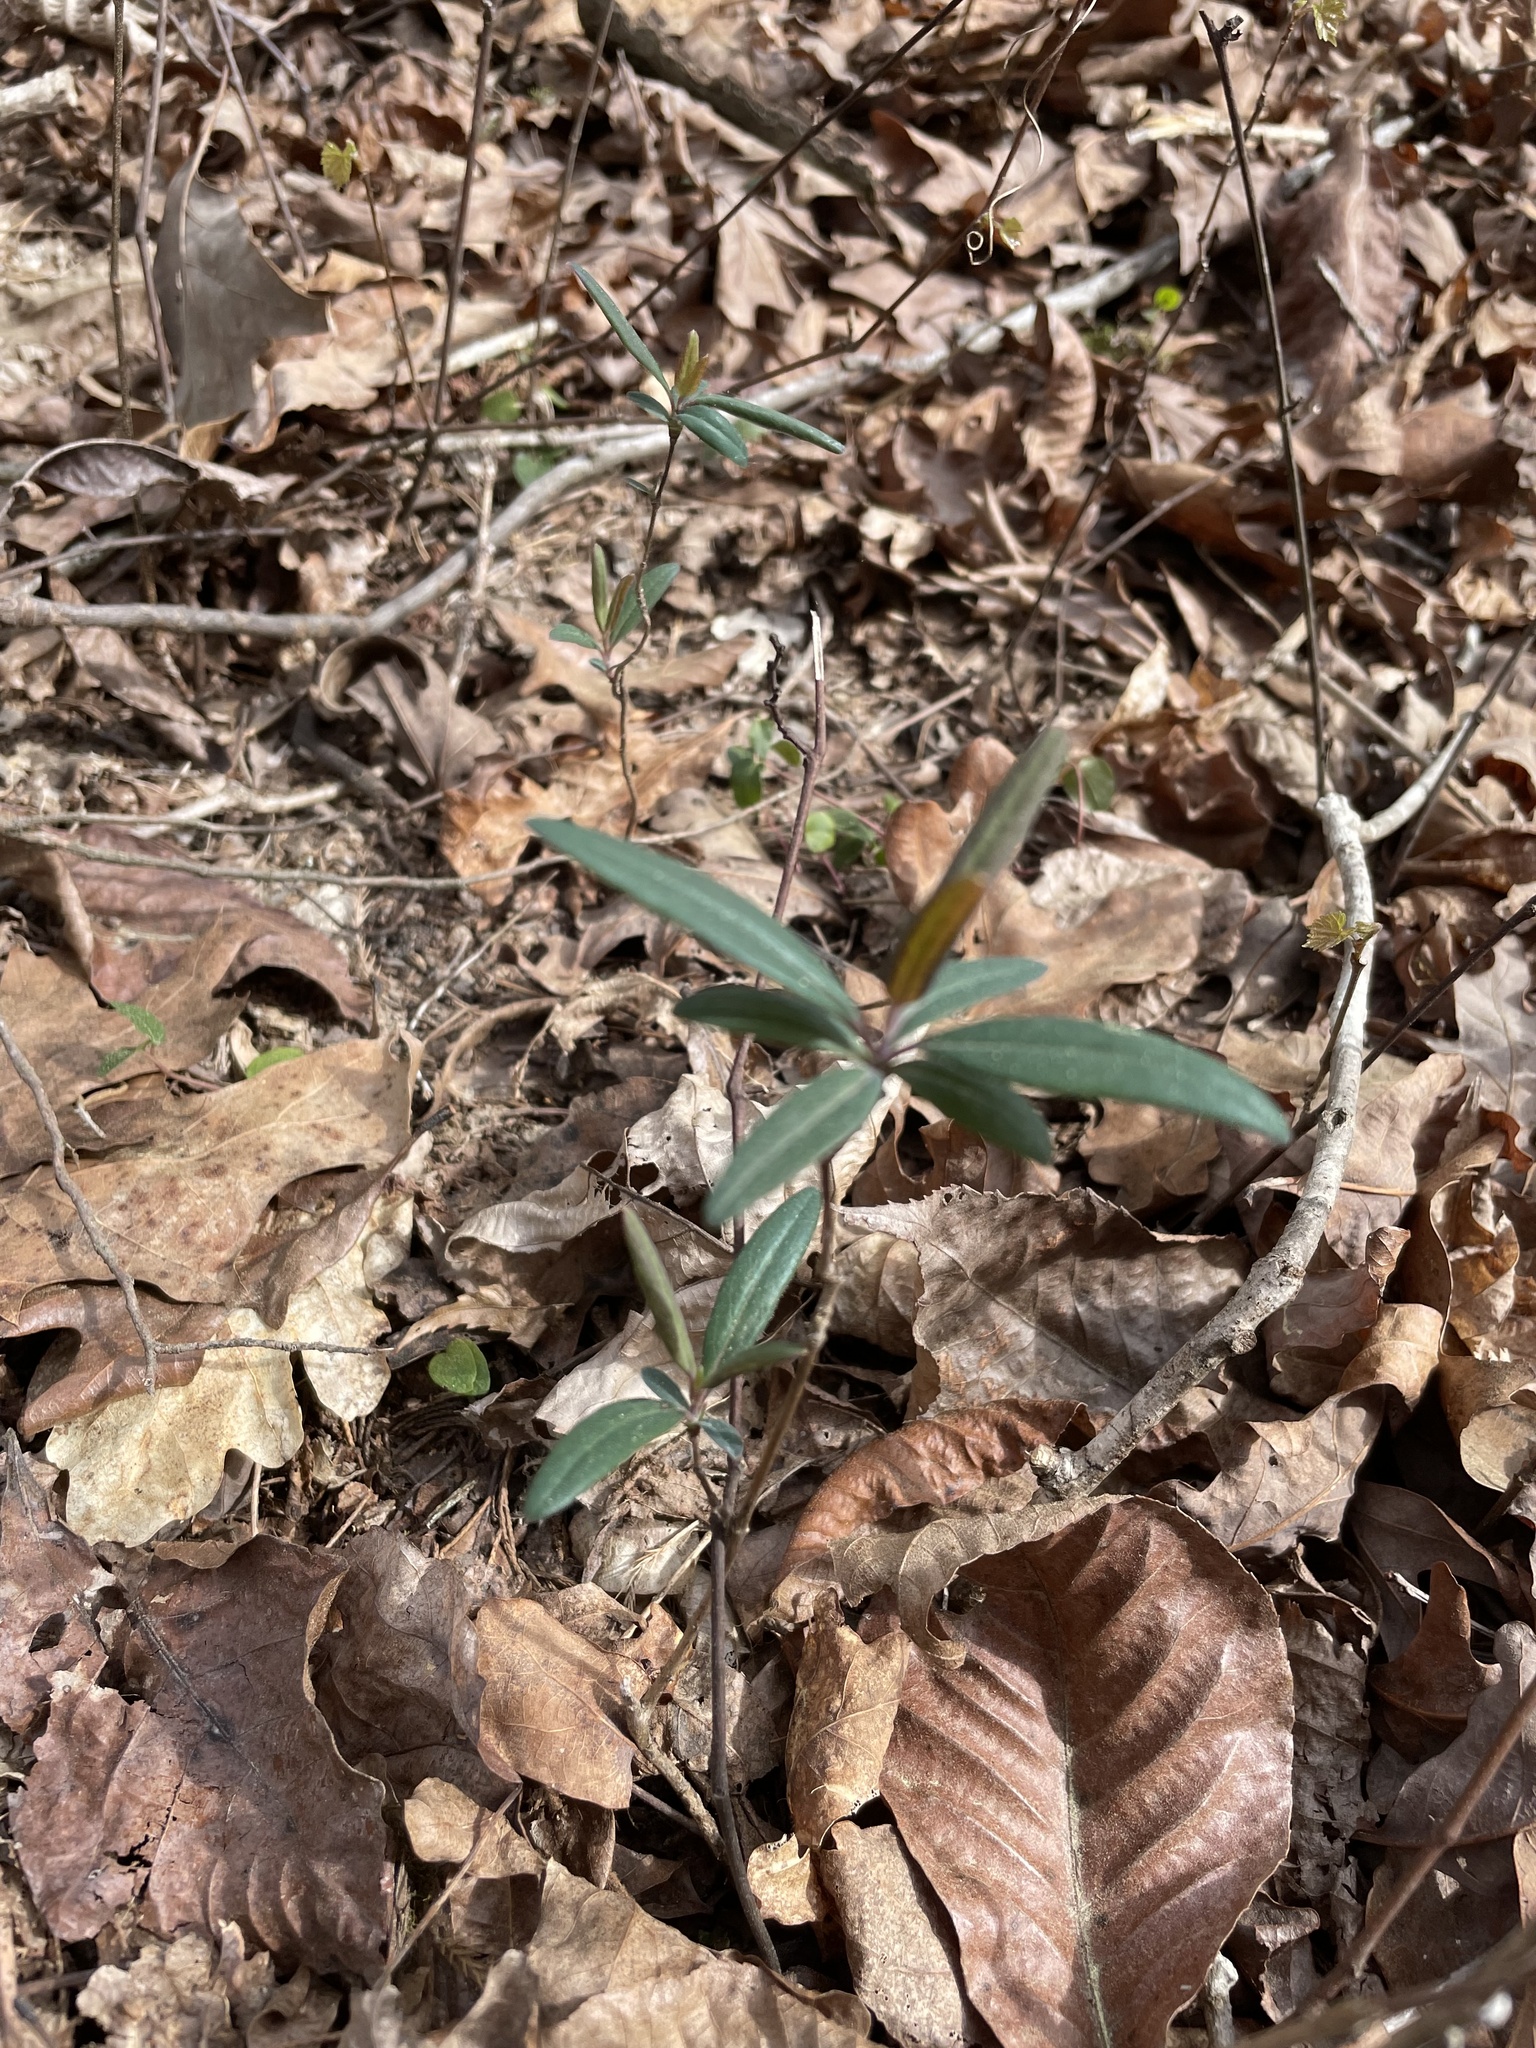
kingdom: Plantae
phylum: Tracheophyta
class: Magnoliopsida
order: Dipsacales
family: Caprifoliaceae
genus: Lonicera
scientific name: Lonicera sempervirens
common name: Coral honeysuckle
